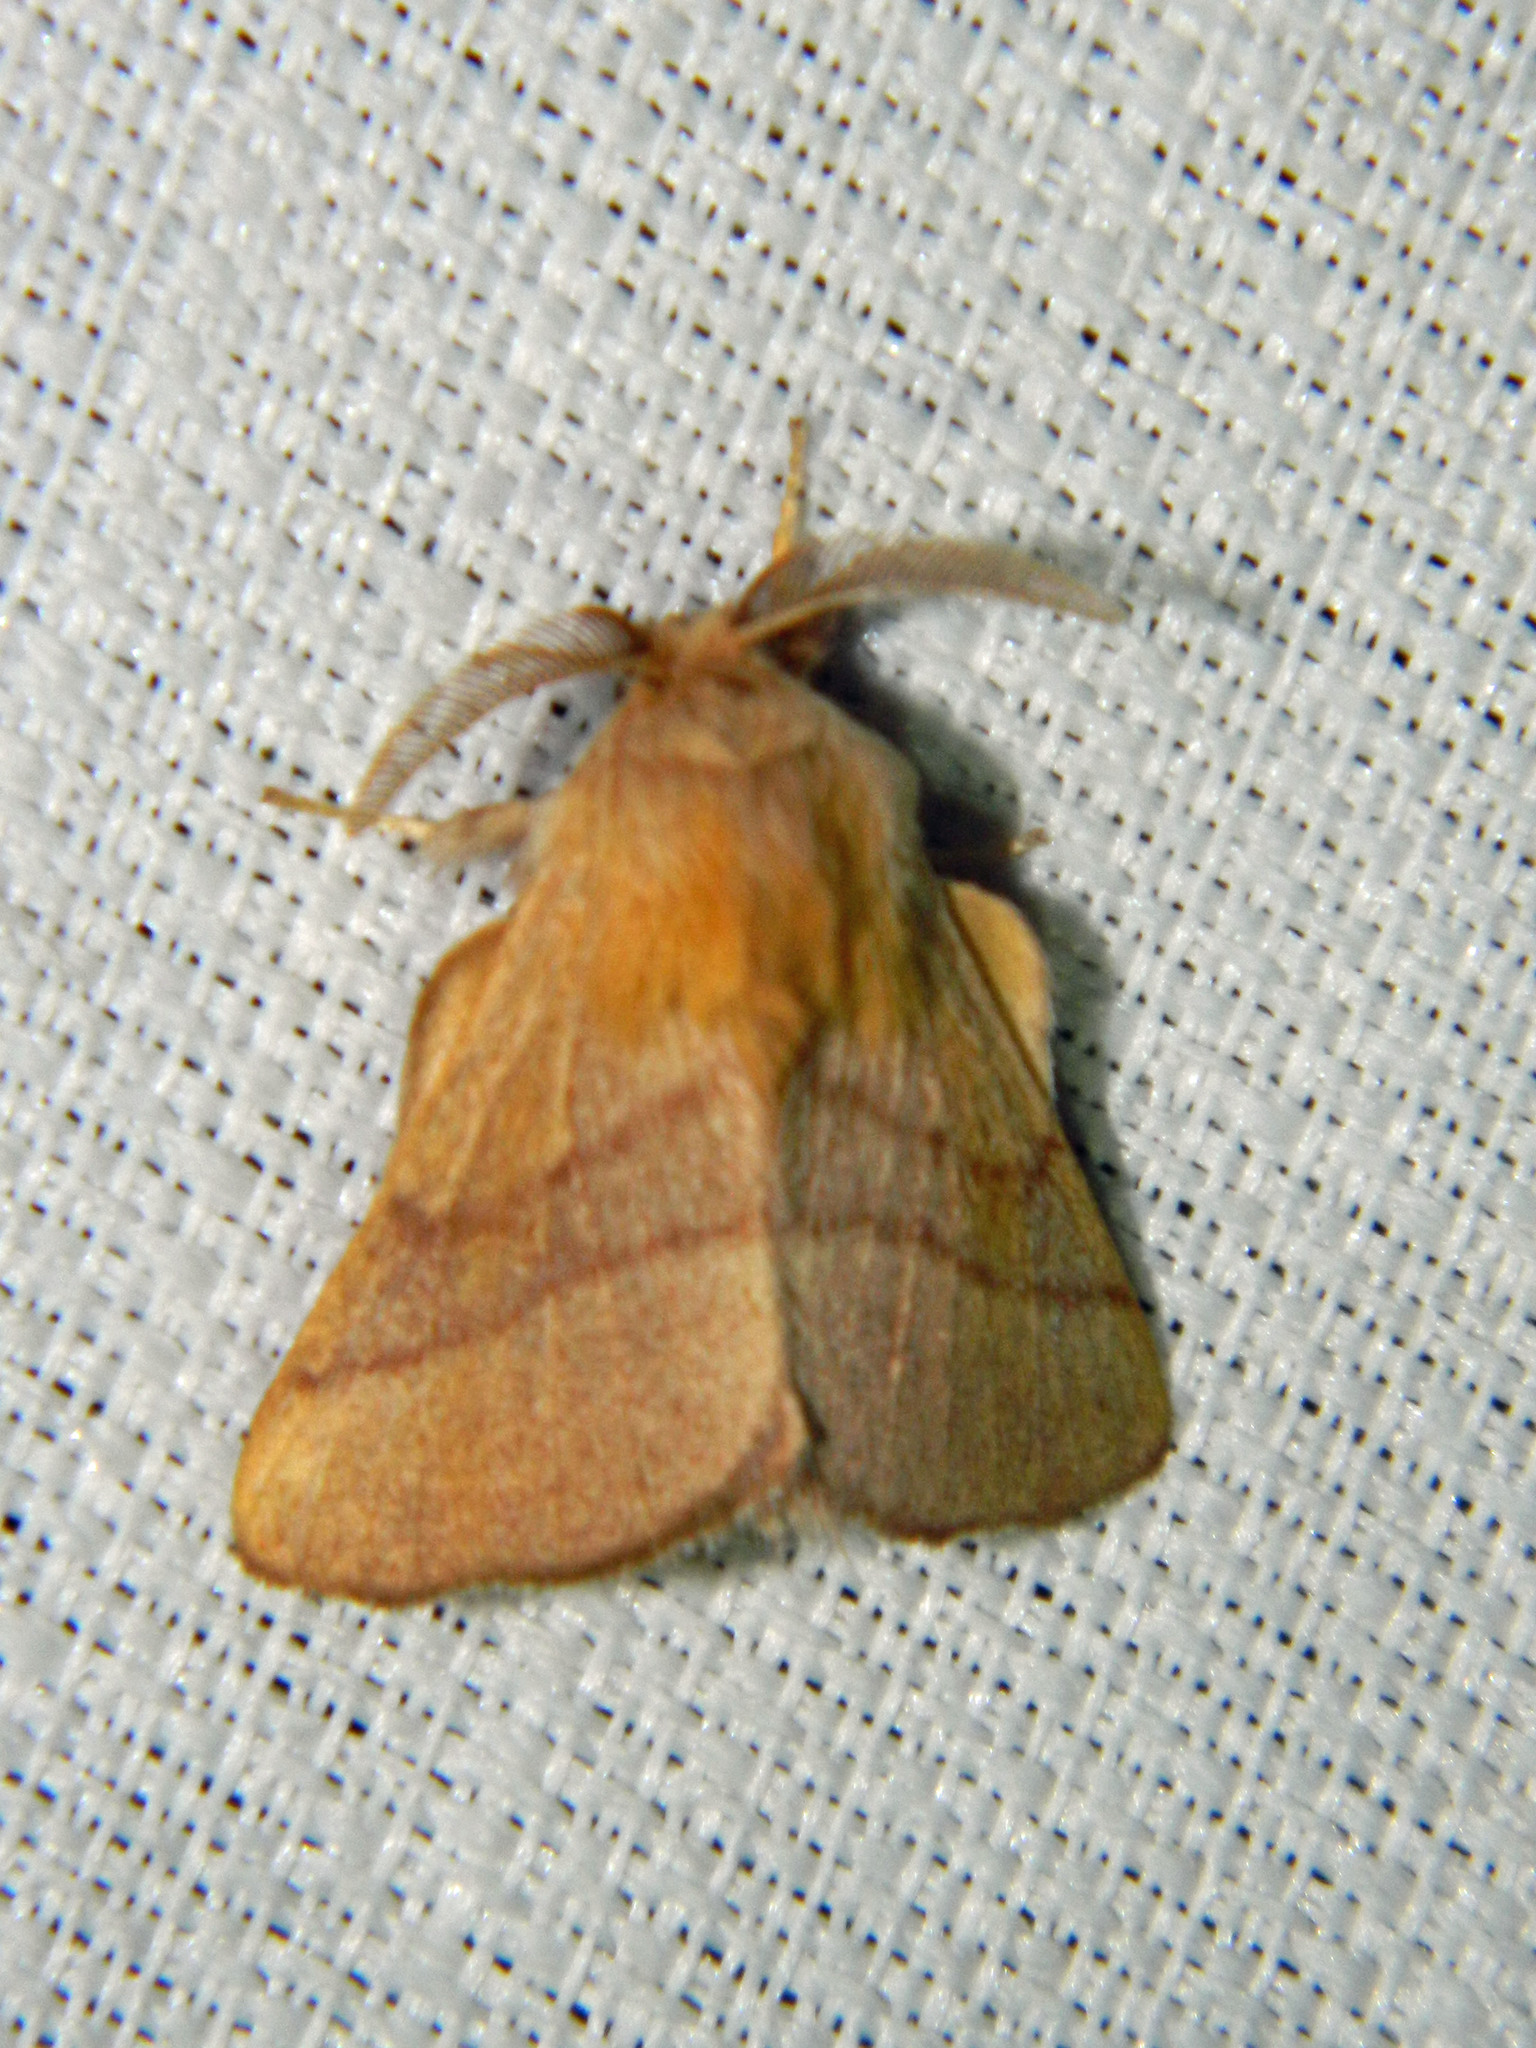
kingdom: Animalia
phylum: Arthropoda
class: Insecta
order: Lepidoptera
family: Lasiocampidae
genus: Malacosoma
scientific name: Malacosoma disstria
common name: Forest tent caterpillar
